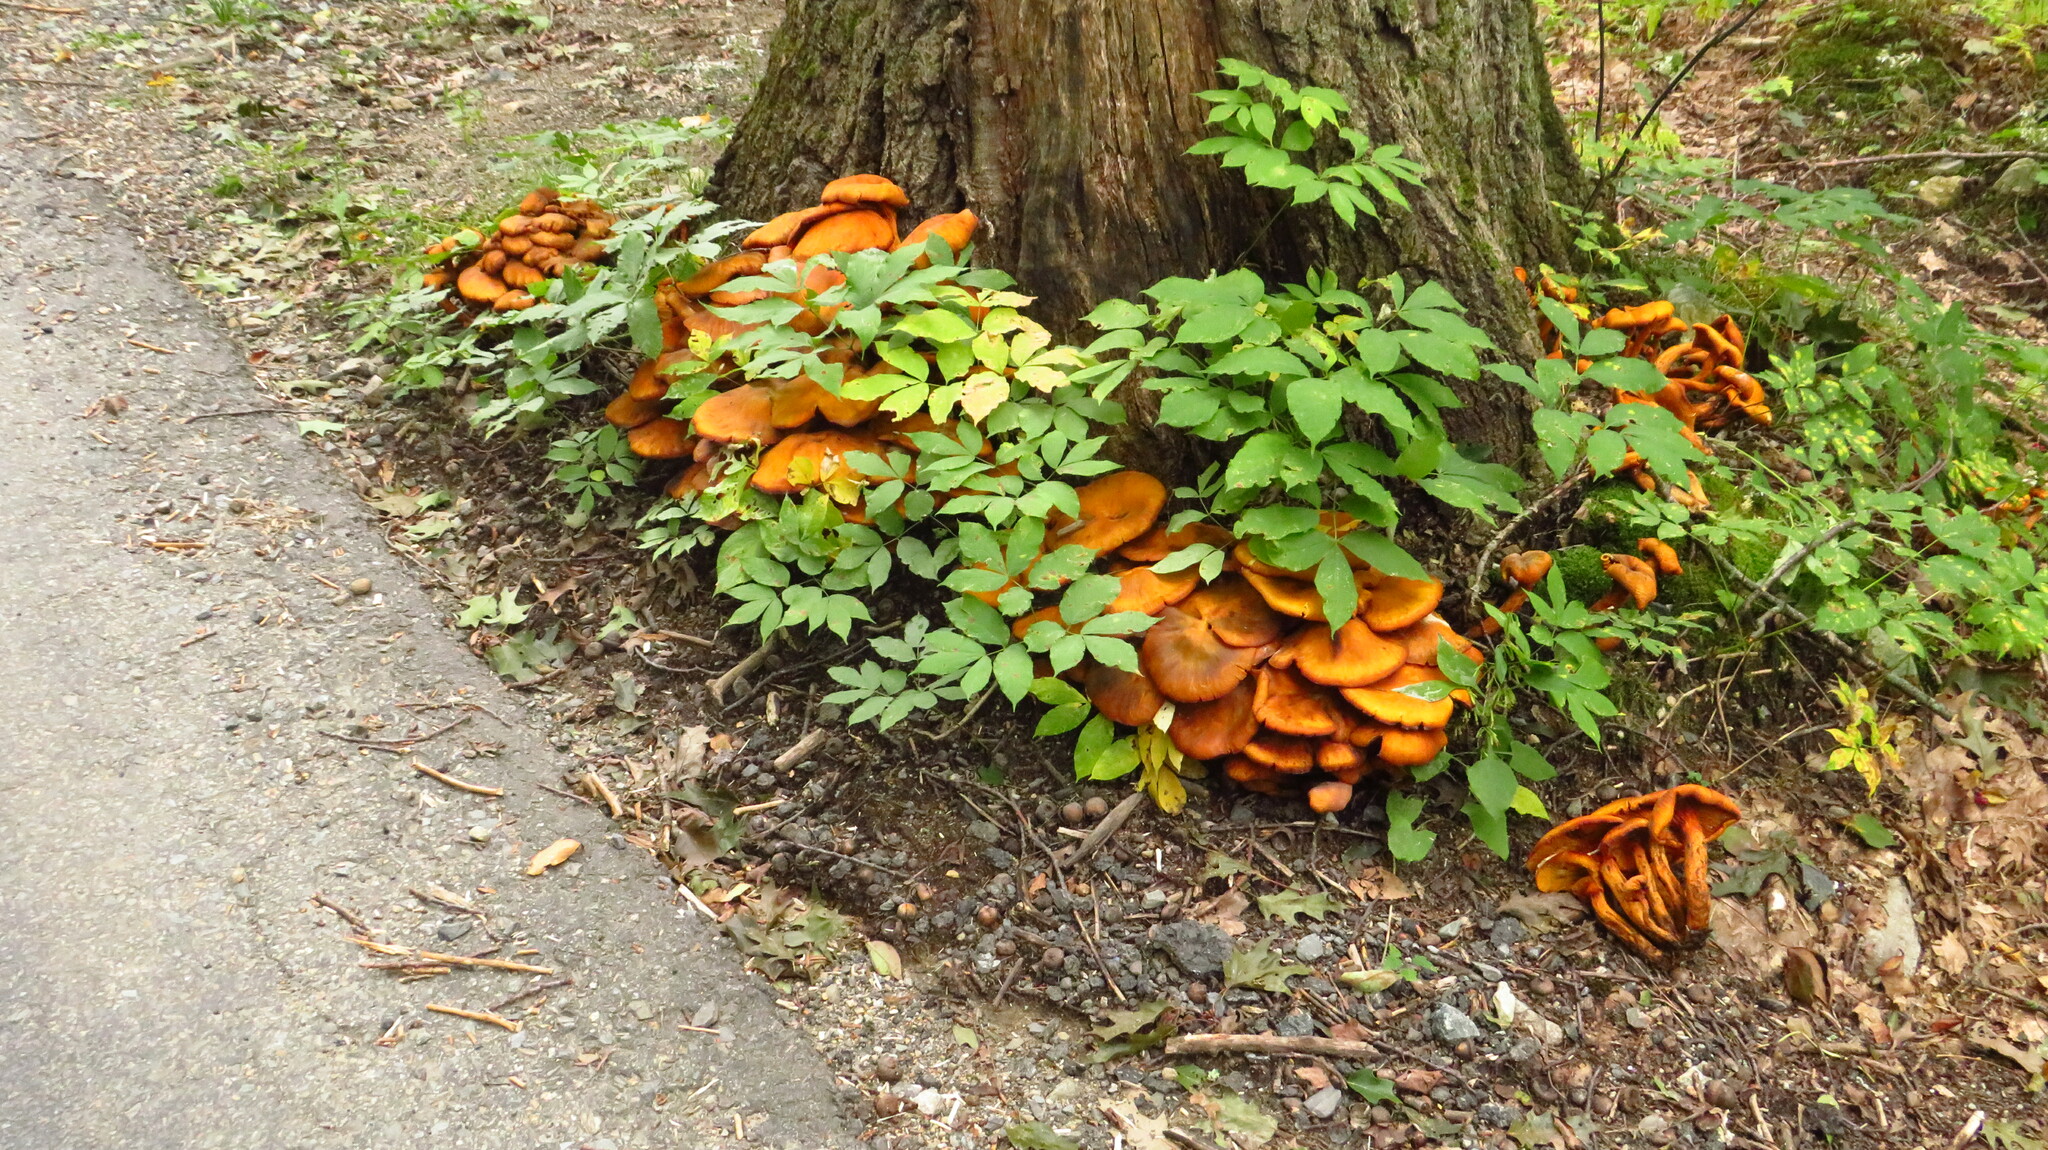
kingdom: Fungi
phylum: Basidiomycota
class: Agaricomycetes
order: Agaricales
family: Omphalotaceae
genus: Omphalotus
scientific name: Omphalotus illudens
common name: Jack o lantern
